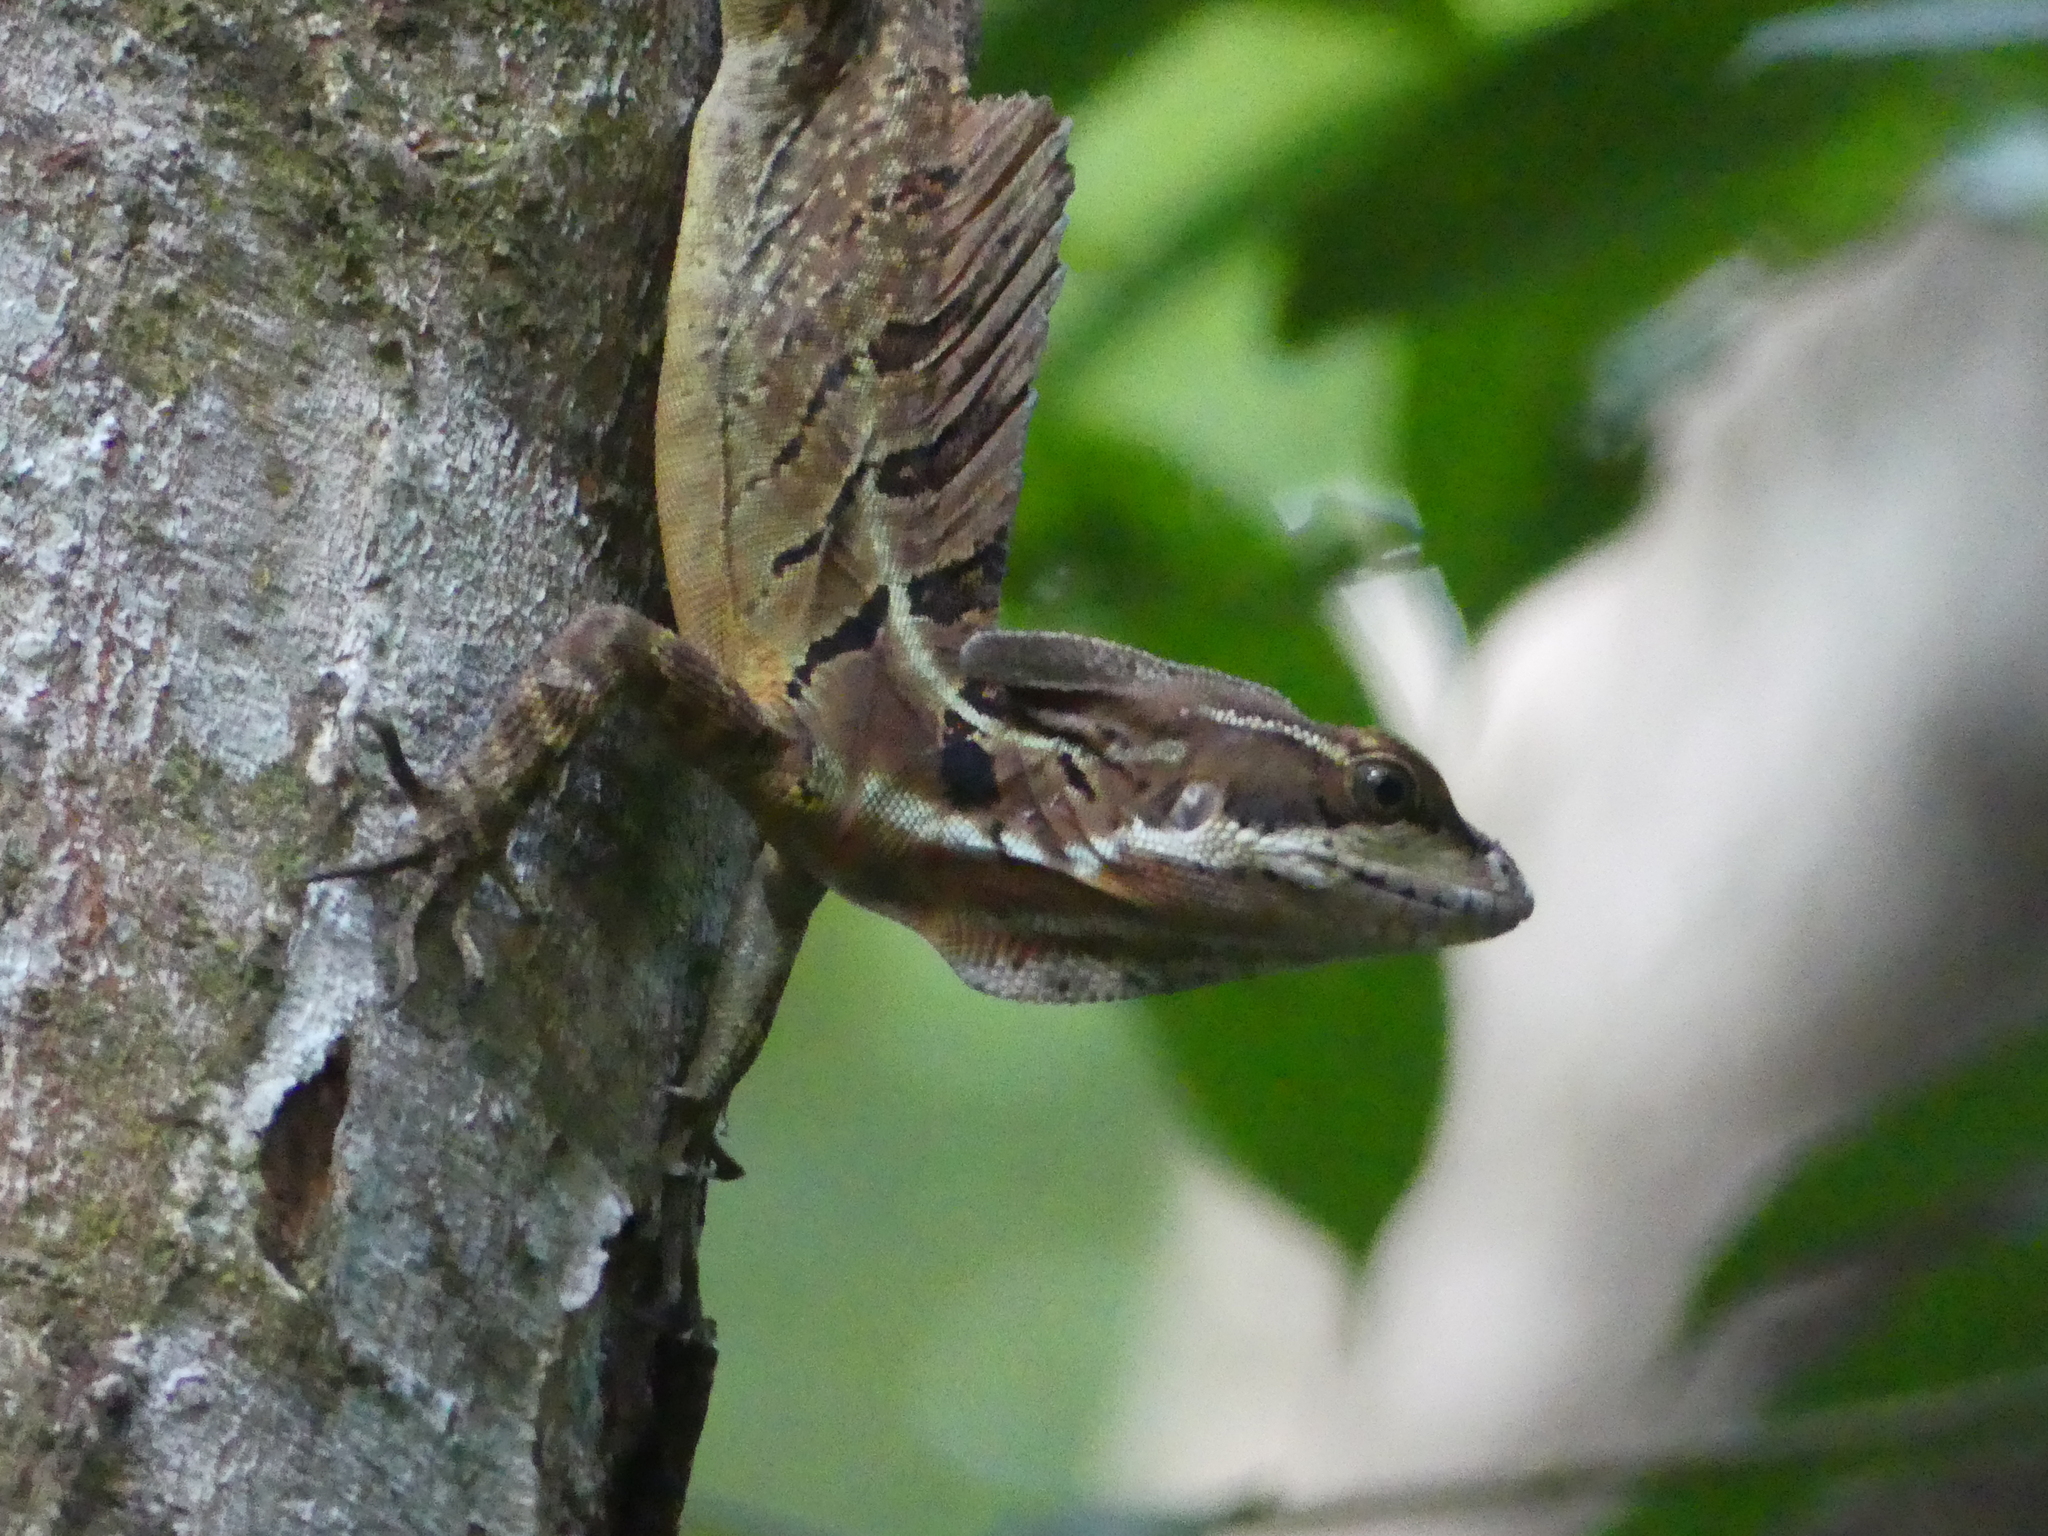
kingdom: Animalia
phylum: Chordata
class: Squamata
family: Corytophanidae
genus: Basiliscus
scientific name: Basiliscus basiliscus
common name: Common basilisk
